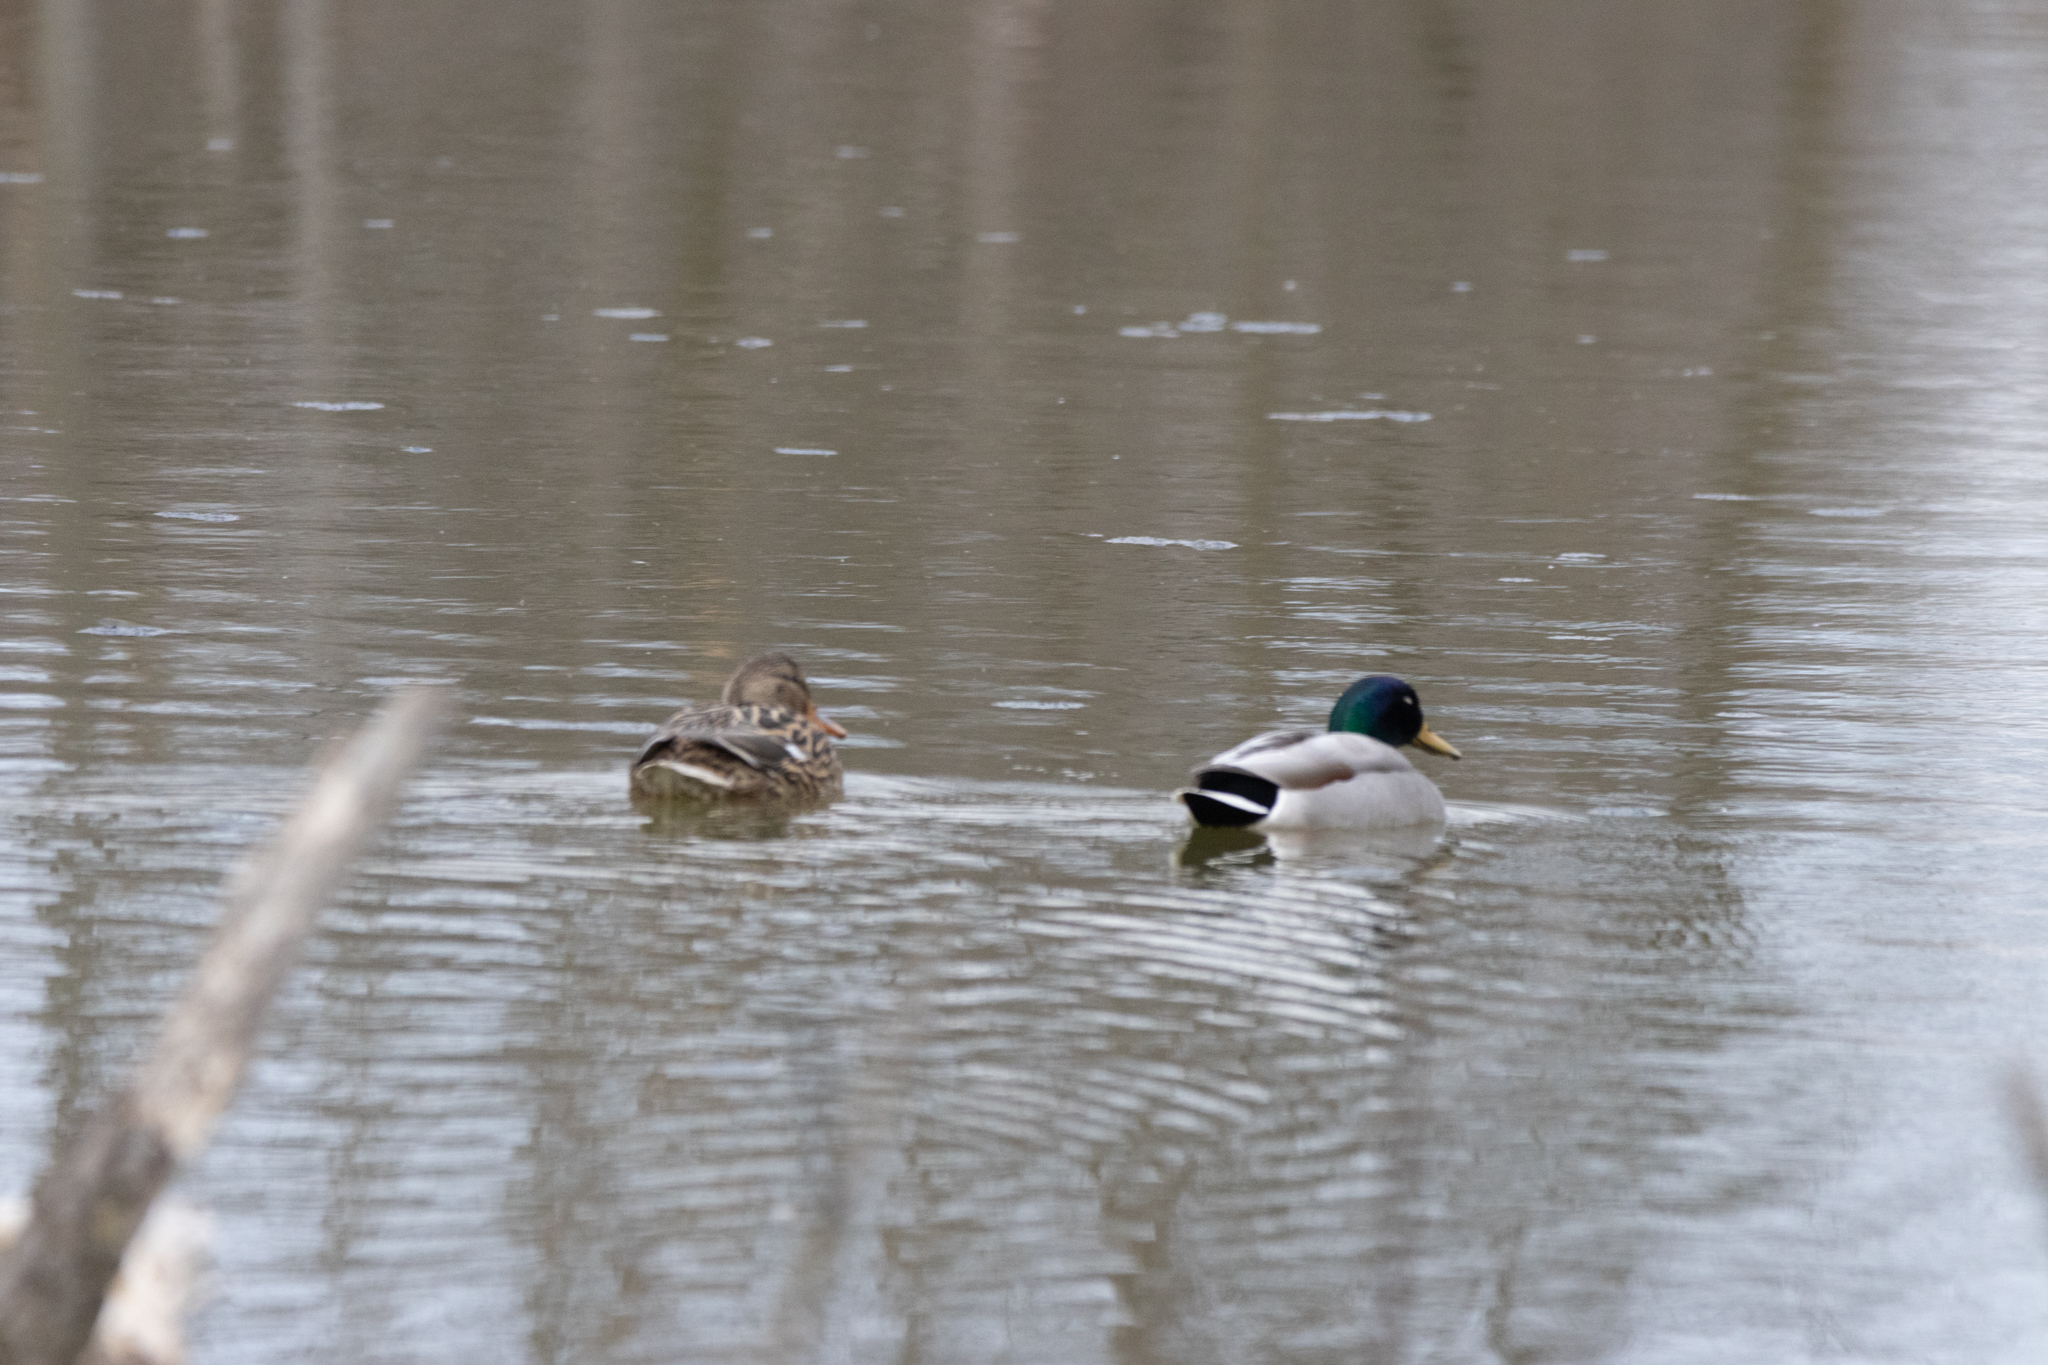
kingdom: Animalia
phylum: Chordata
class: Aves
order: Anseriformes
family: Anatidae
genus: Anas
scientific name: Anas platyrhynchos
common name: Mallard
